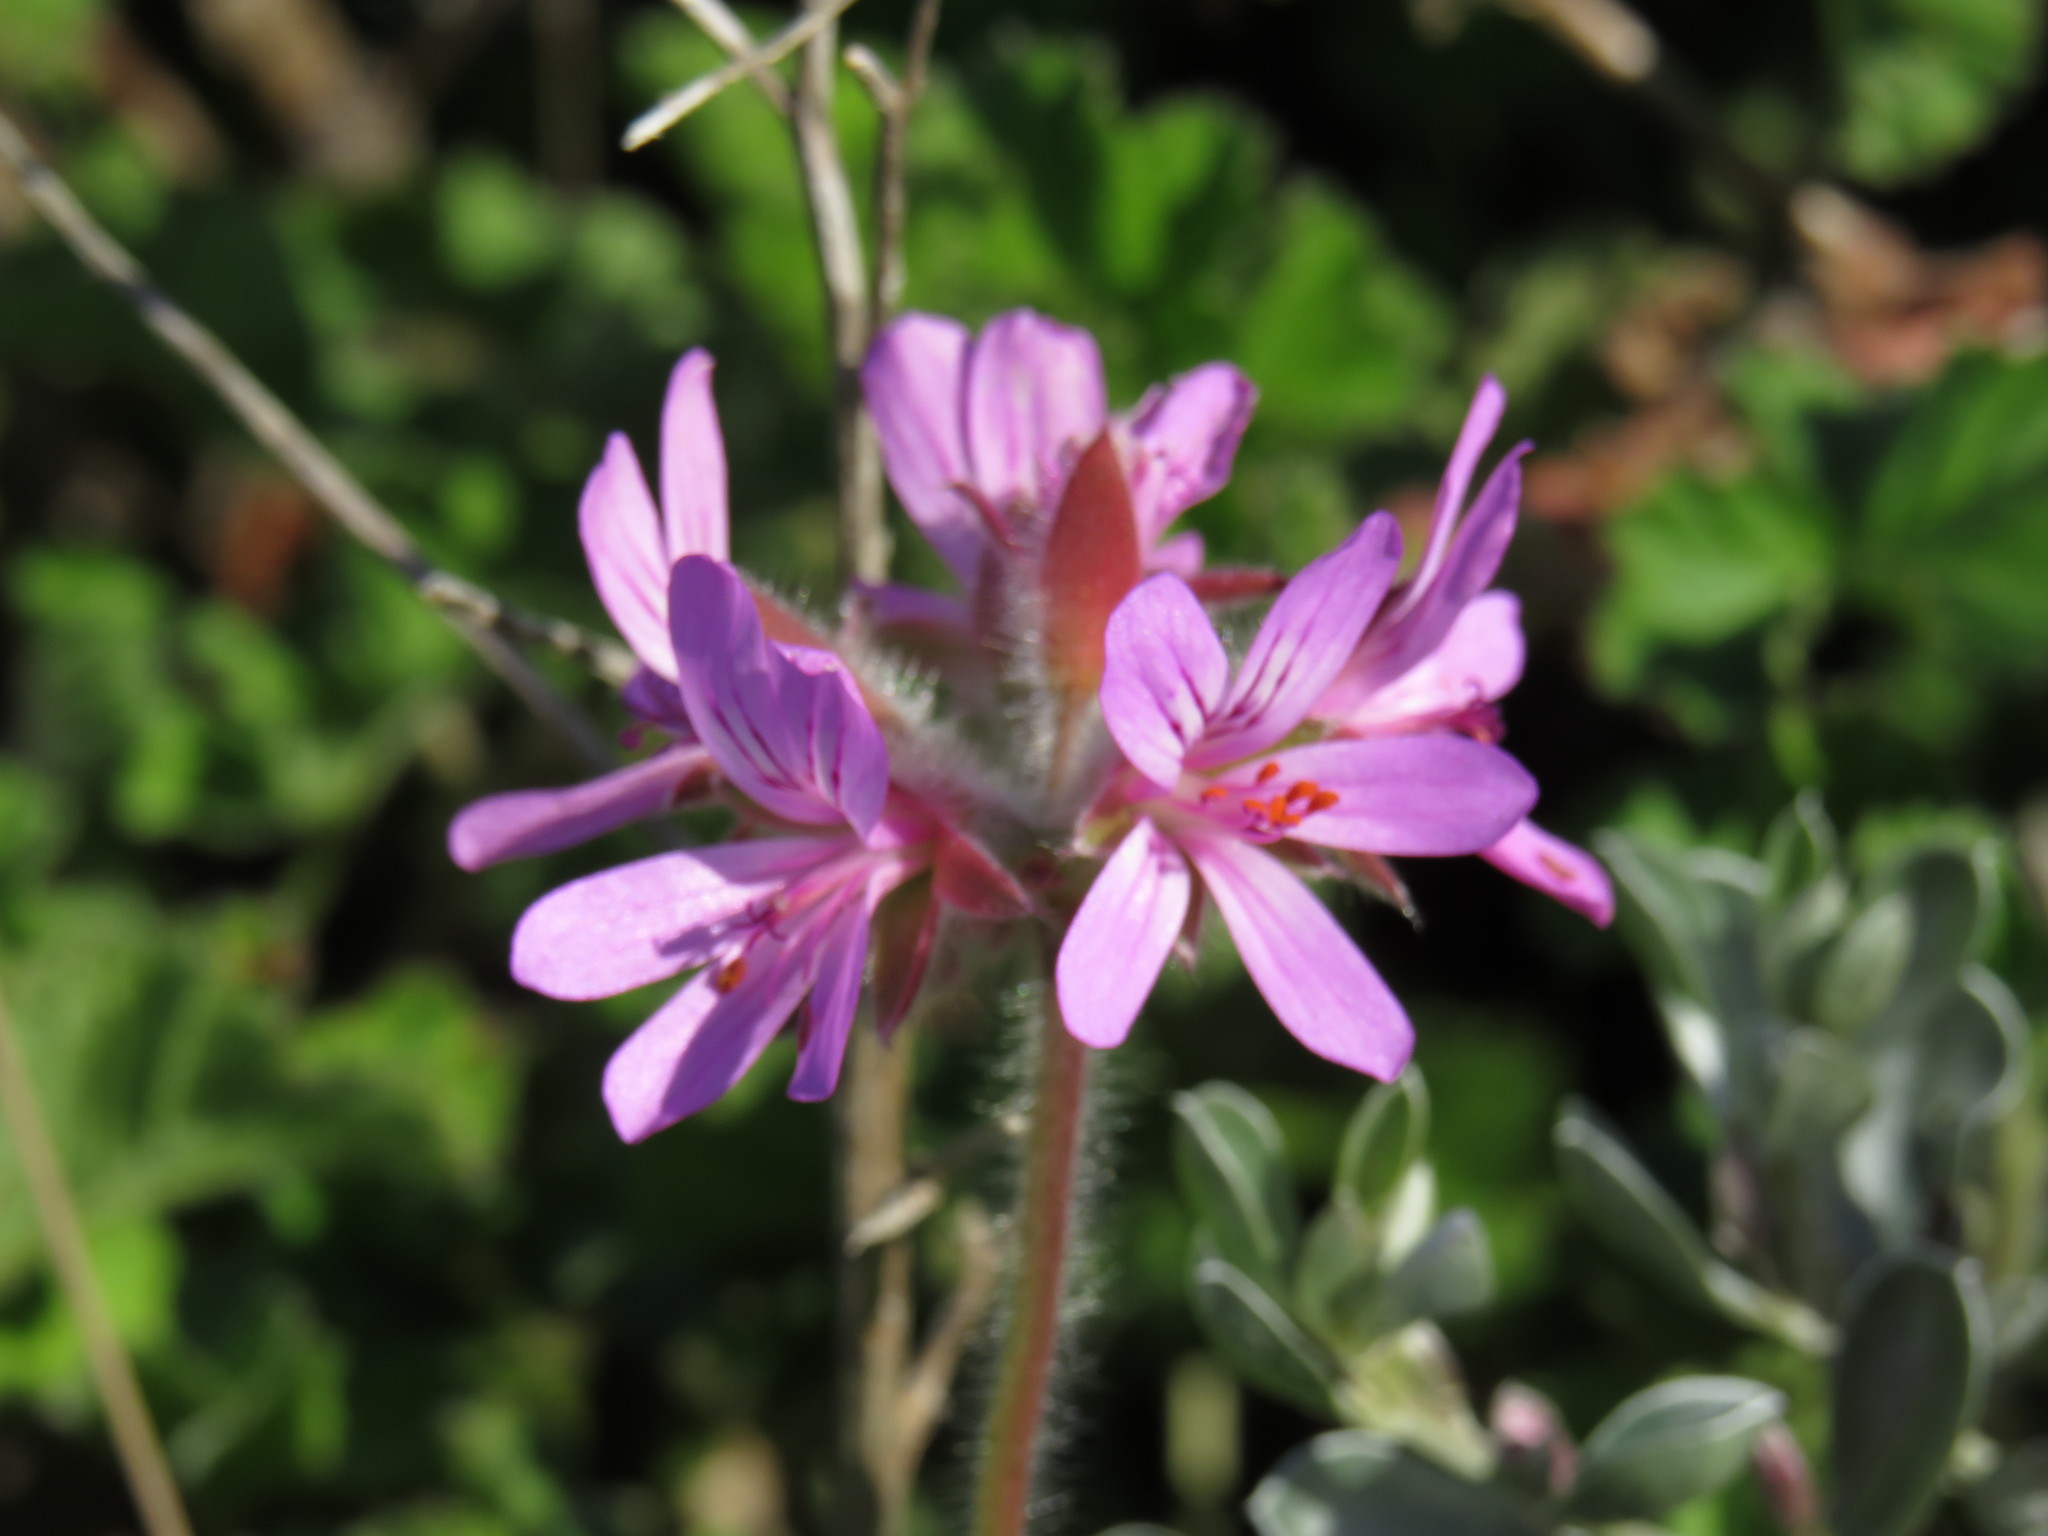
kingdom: Plantae
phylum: Tracheophyta
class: Magnoliopsida
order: Geraniales
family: Geraniaceae
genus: Pelargonium
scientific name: Pelargonium capitatum
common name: Rose scented geranium
